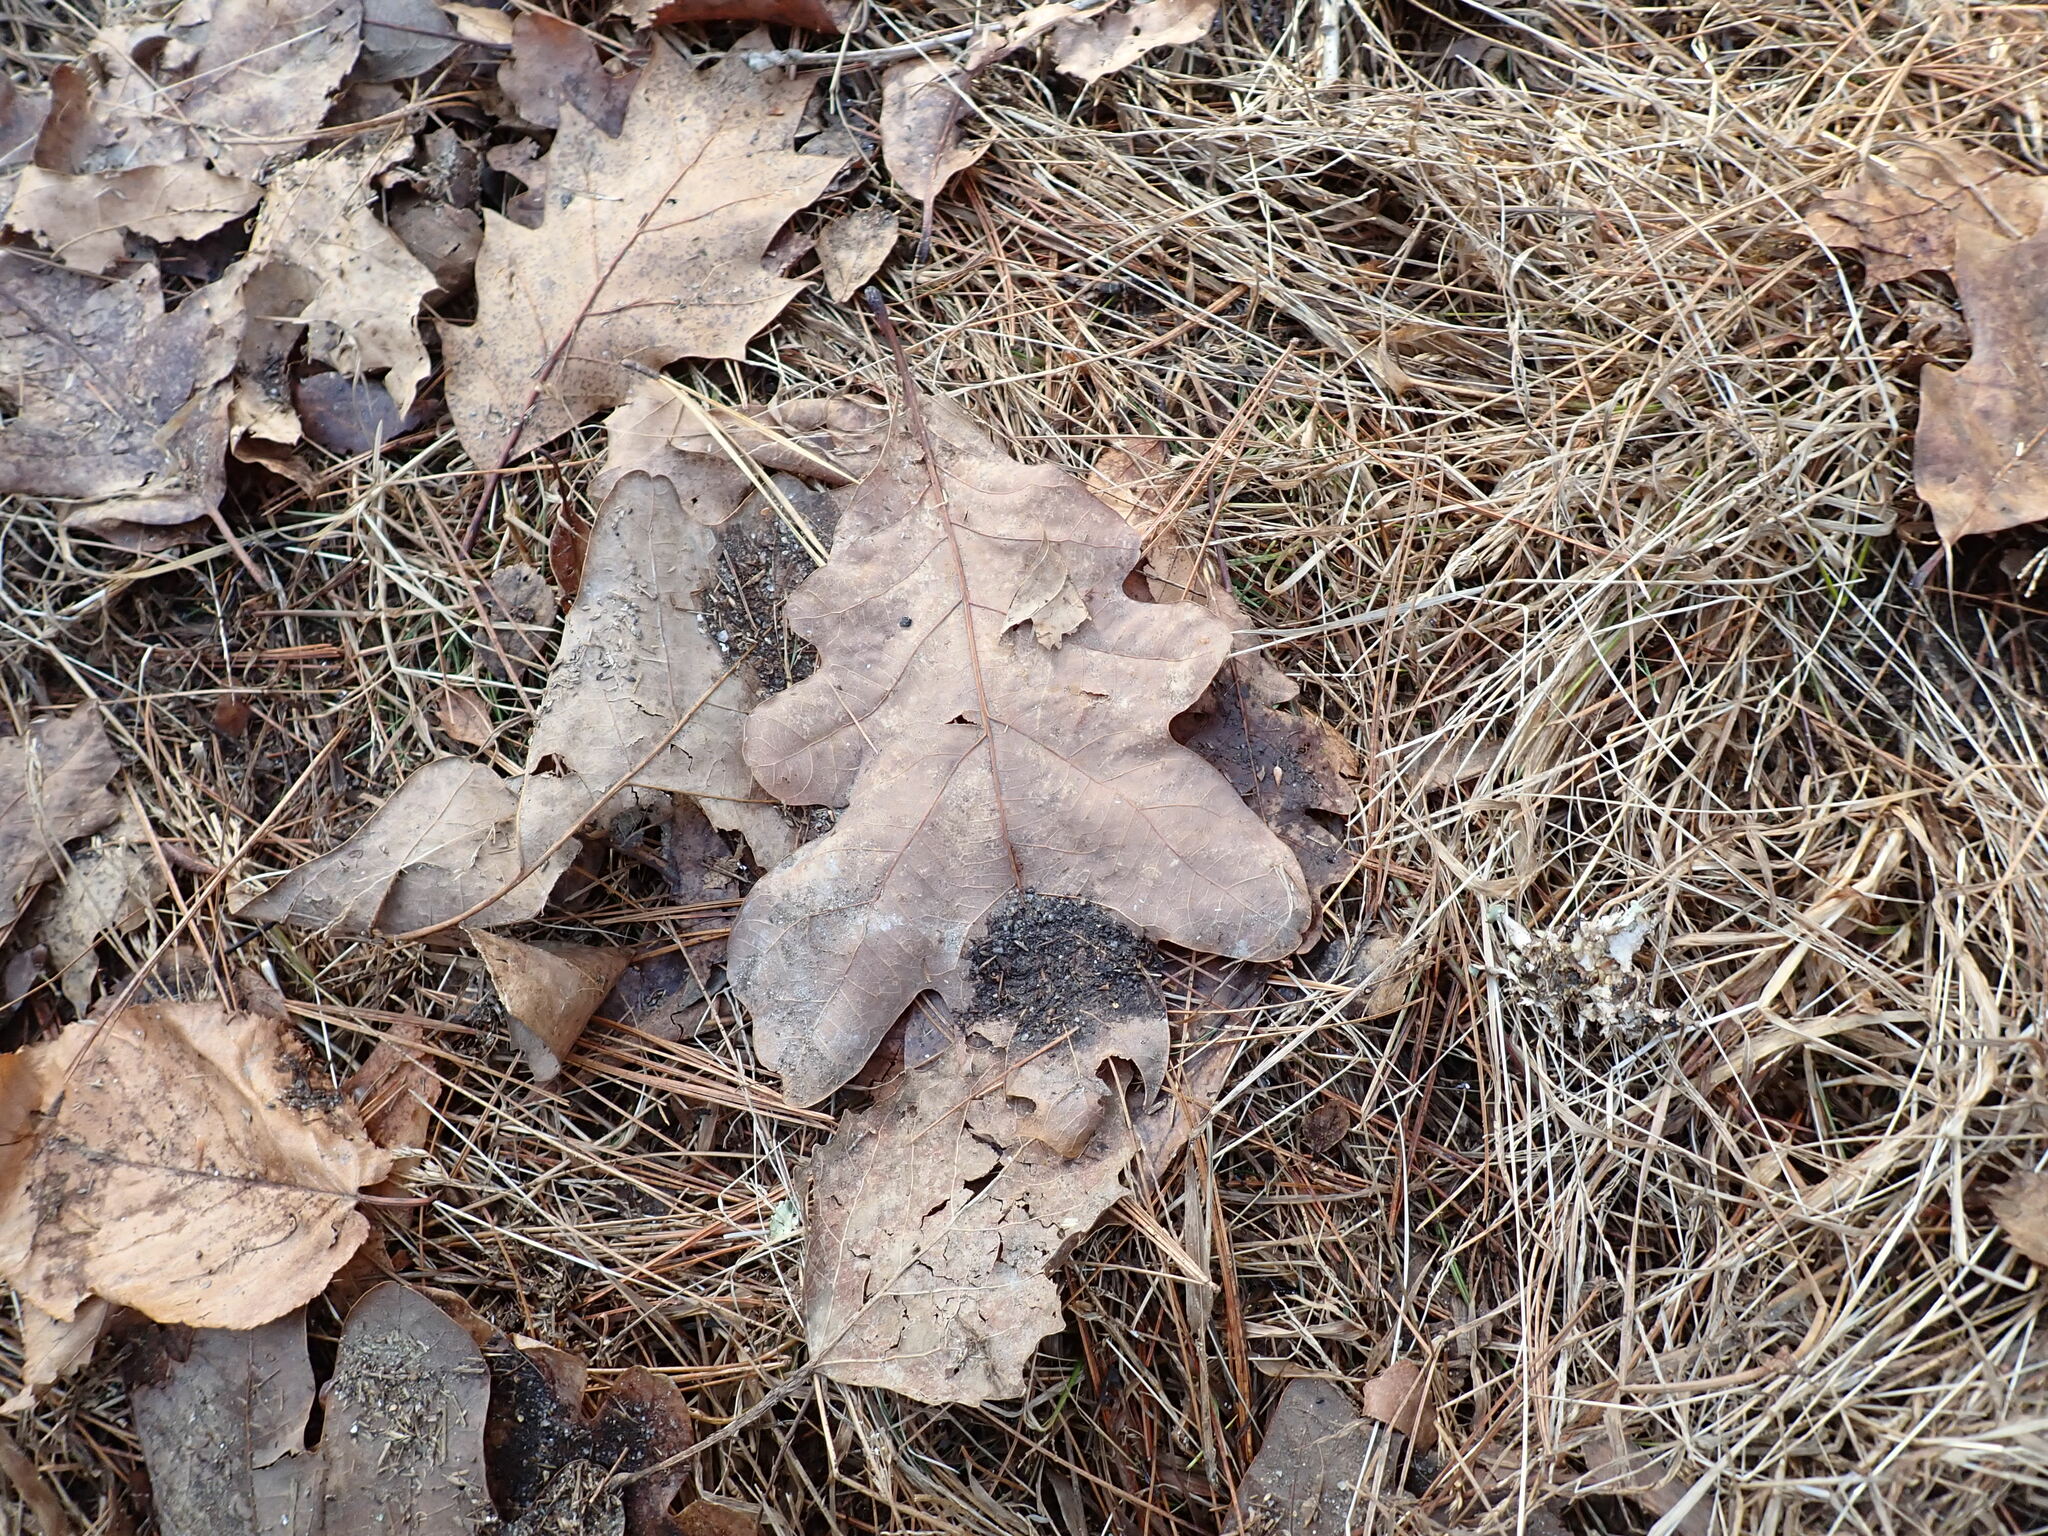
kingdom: Plantae
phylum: Tracheophyta
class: Magnoliopsida
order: Fagales
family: Fagaceae
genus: Quercus
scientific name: Quercus alba
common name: White oak
